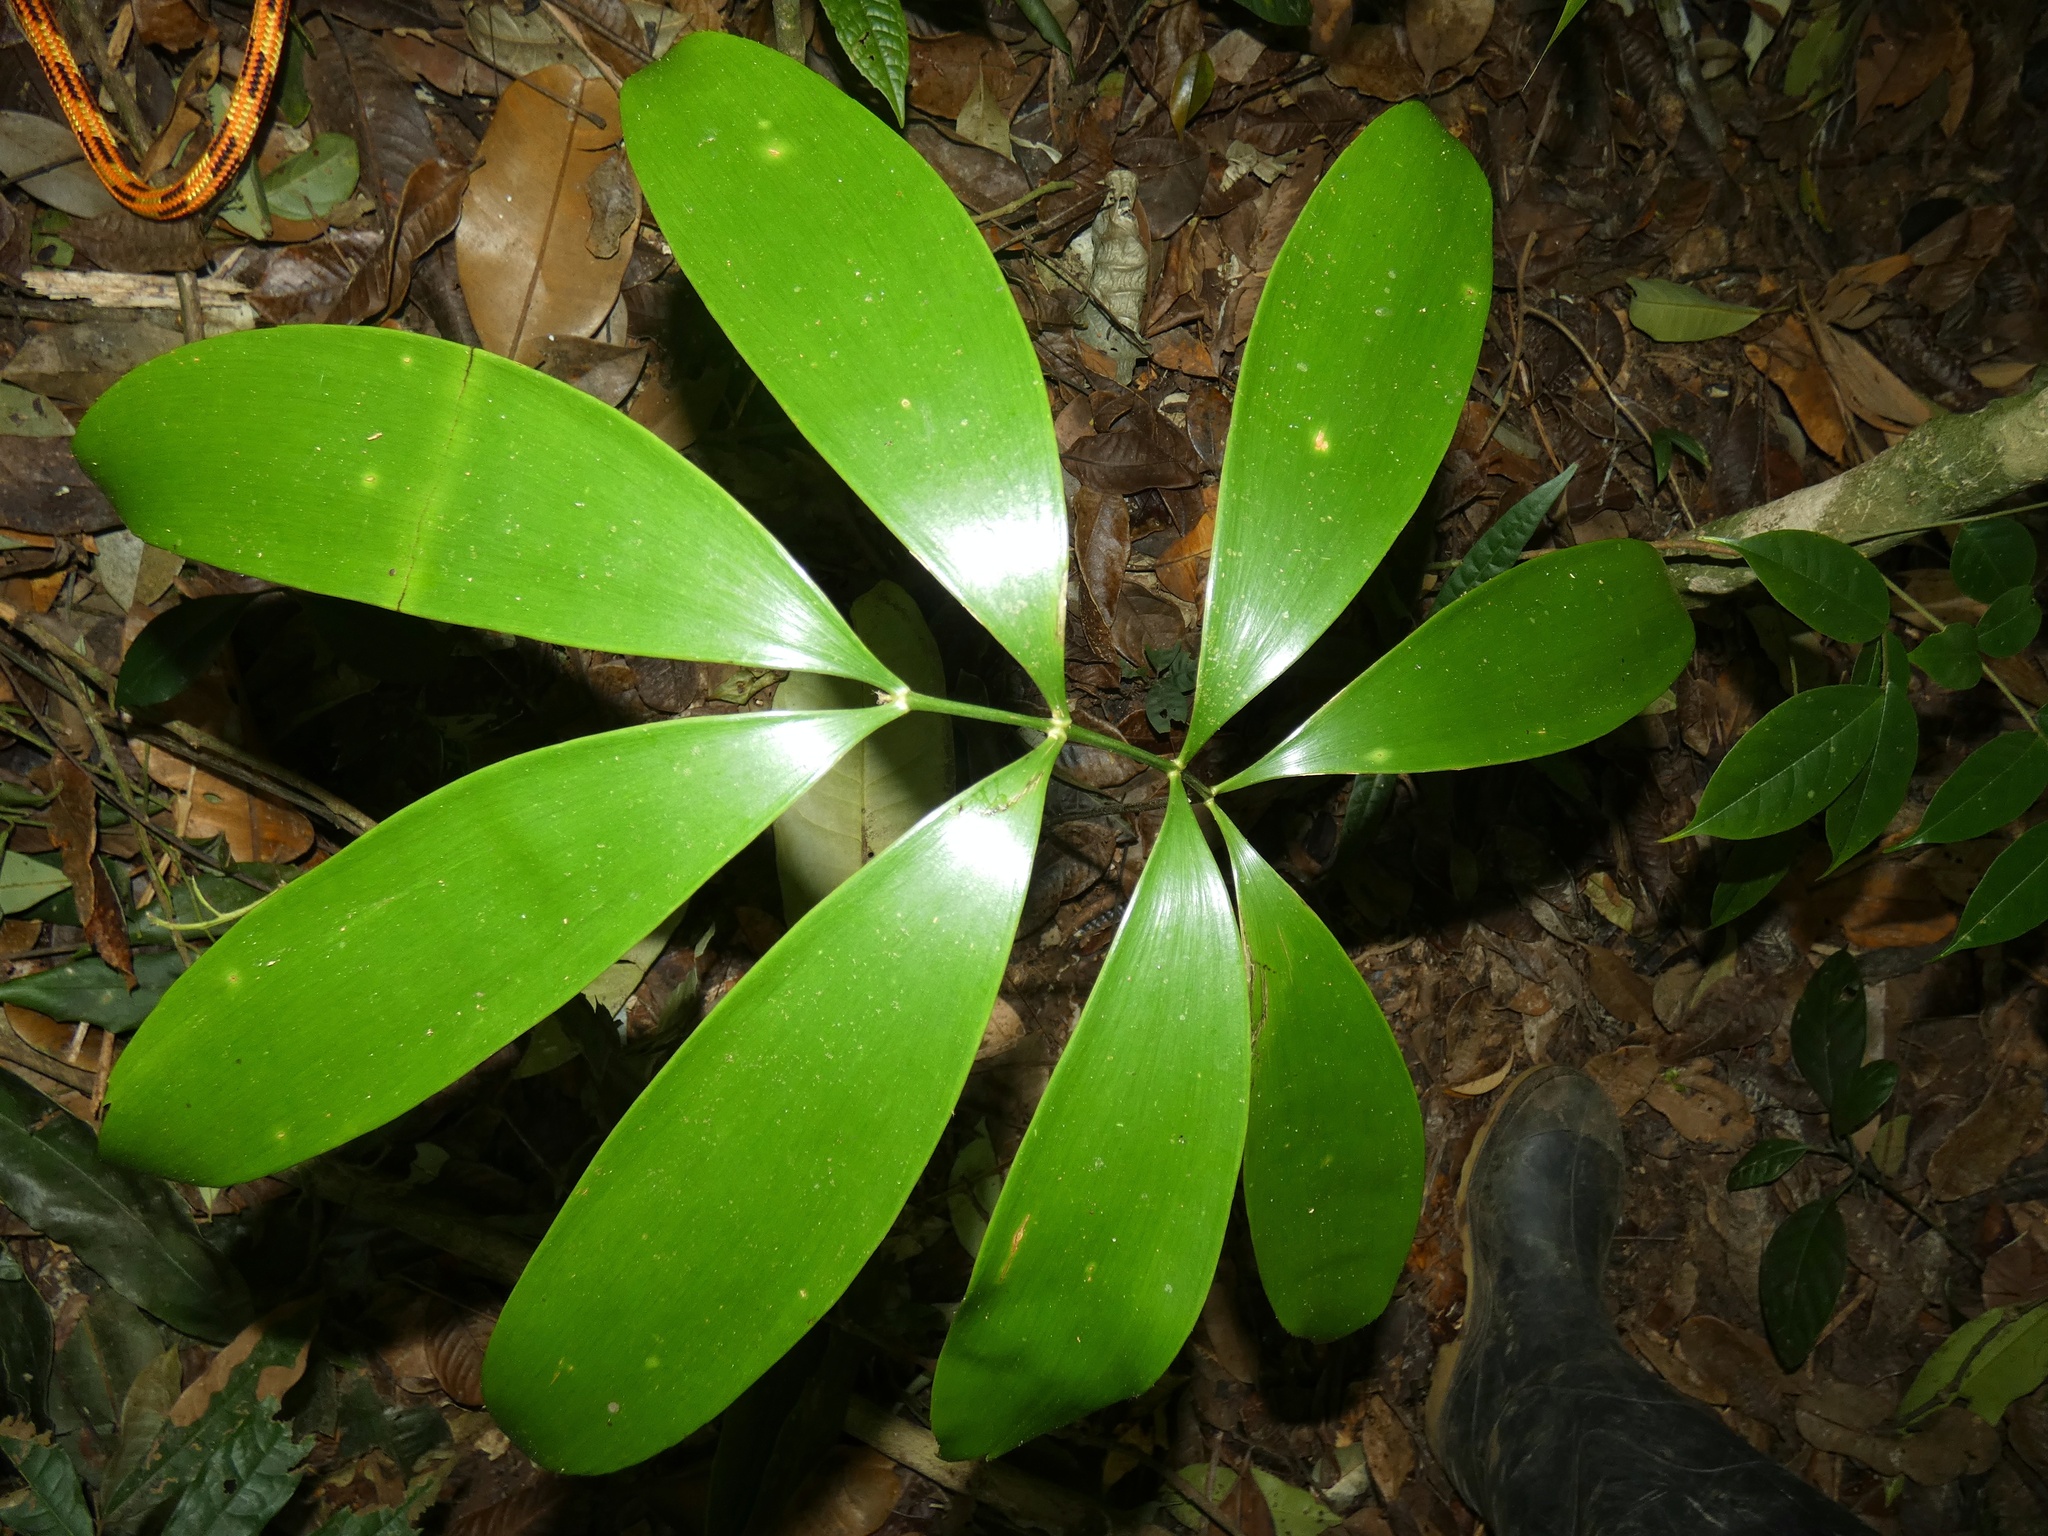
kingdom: Plantae
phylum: Tracheophyta
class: Cycadopsida
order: Cycadales
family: Zamiaceae
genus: Zamia
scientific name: Zamia cunaria
